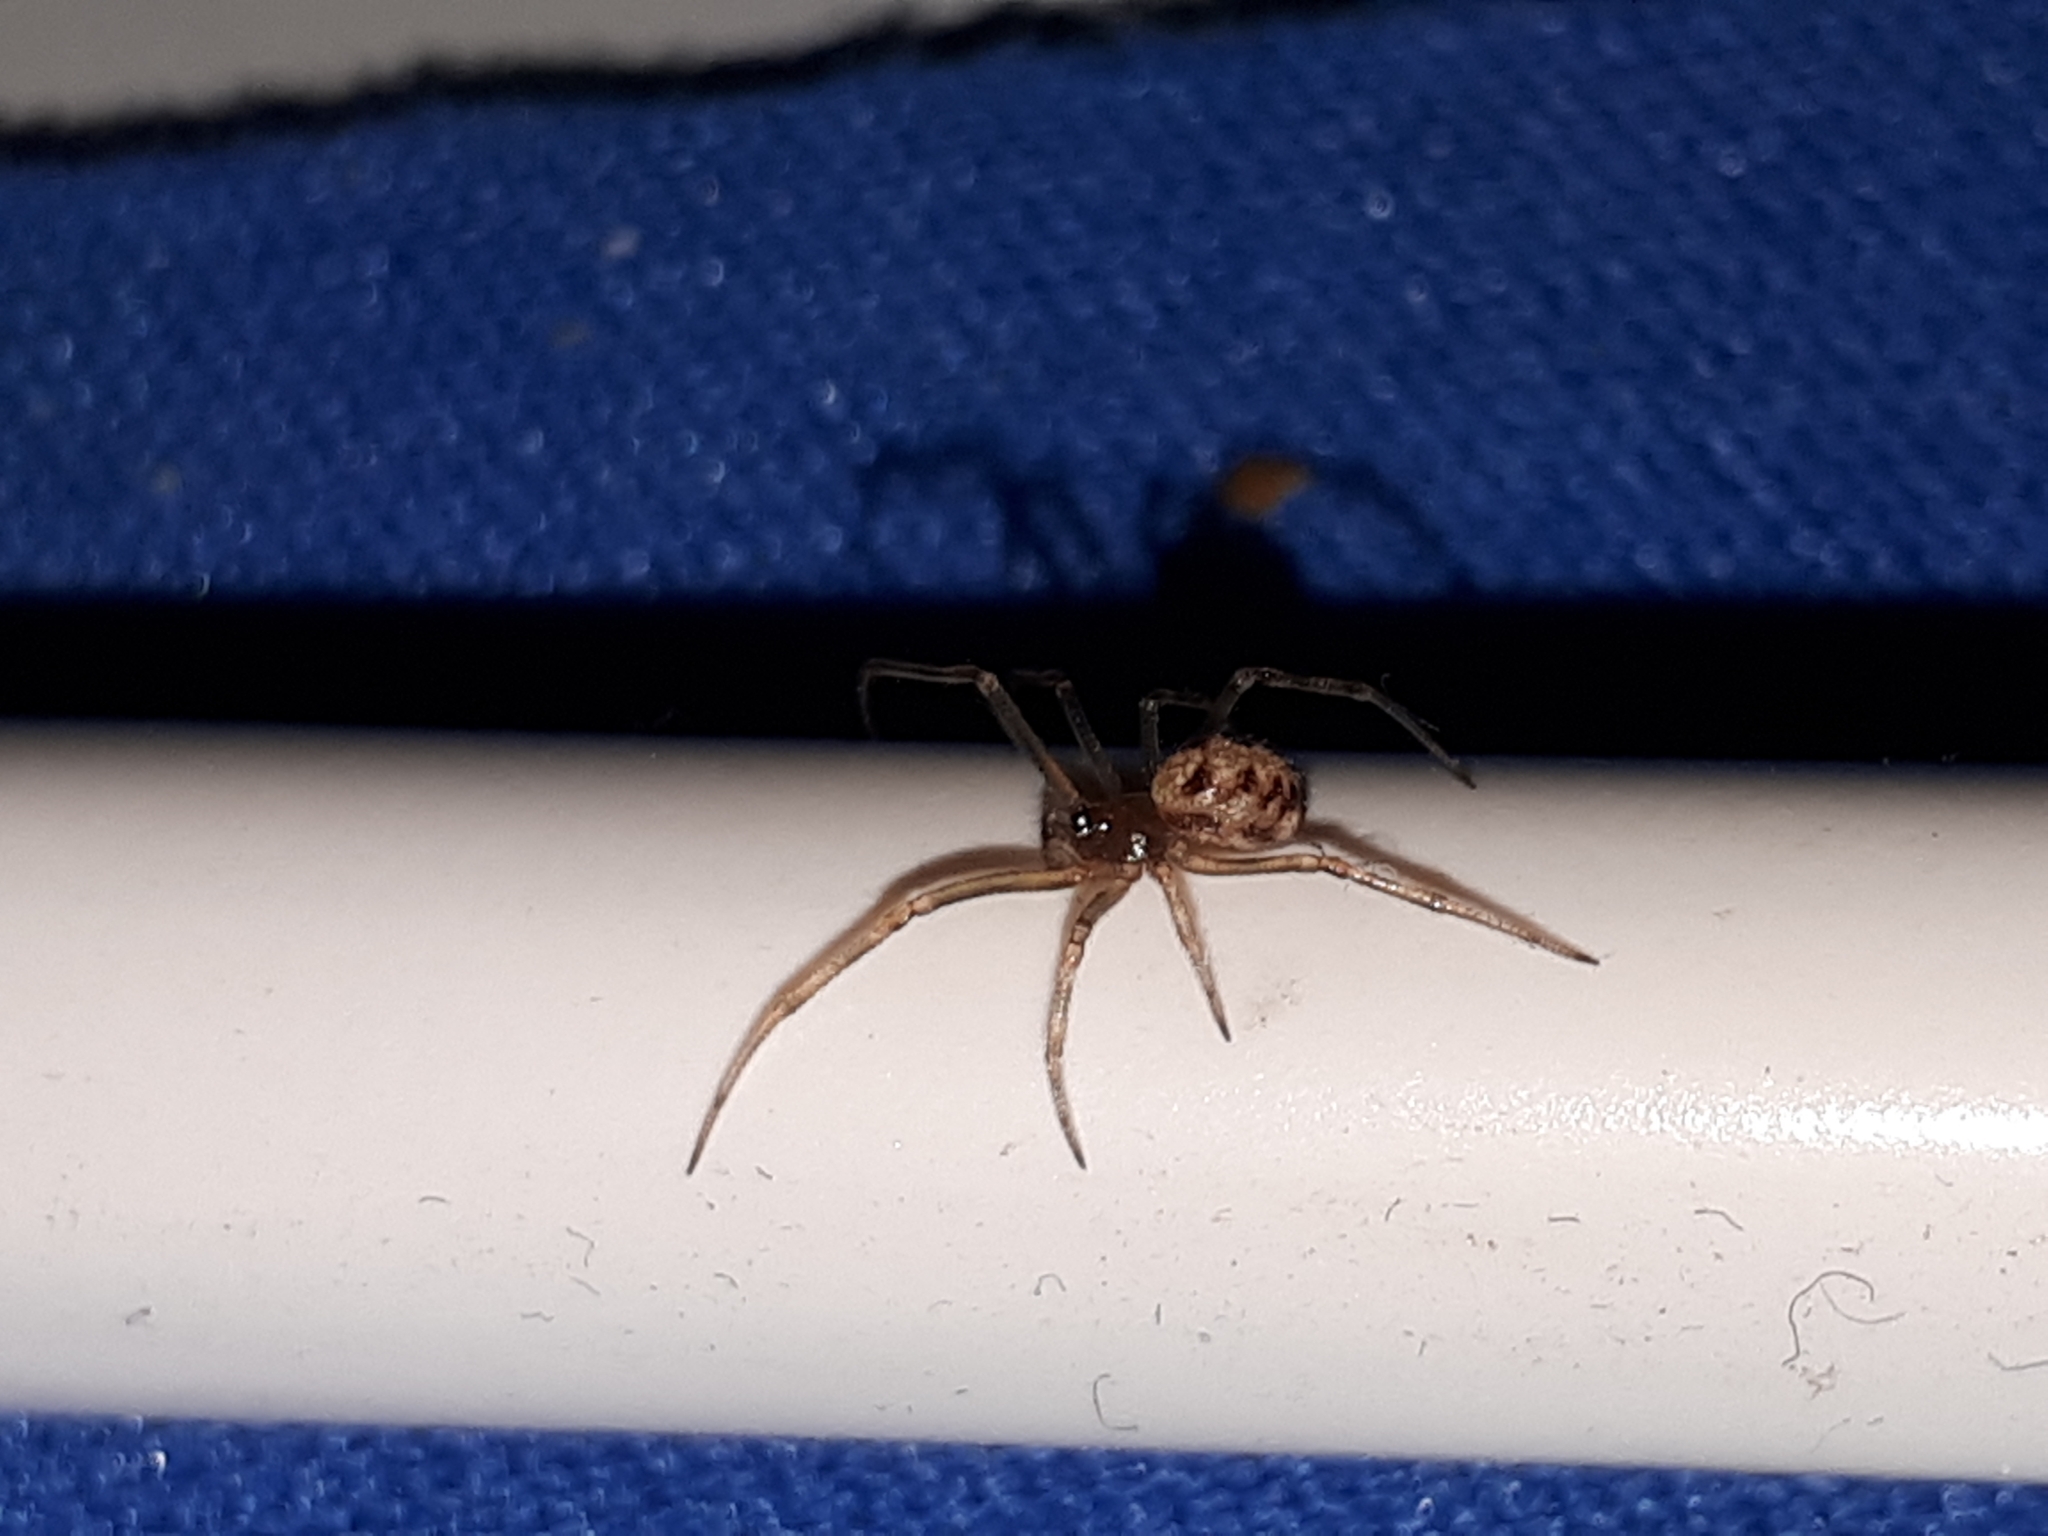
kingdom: Animalia
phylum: Arthropoda
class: Arachnida
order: Araneae
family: Theridiidae
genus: Steatoda
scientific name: Steatoda triangulosa
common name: Triangulate bud spider
